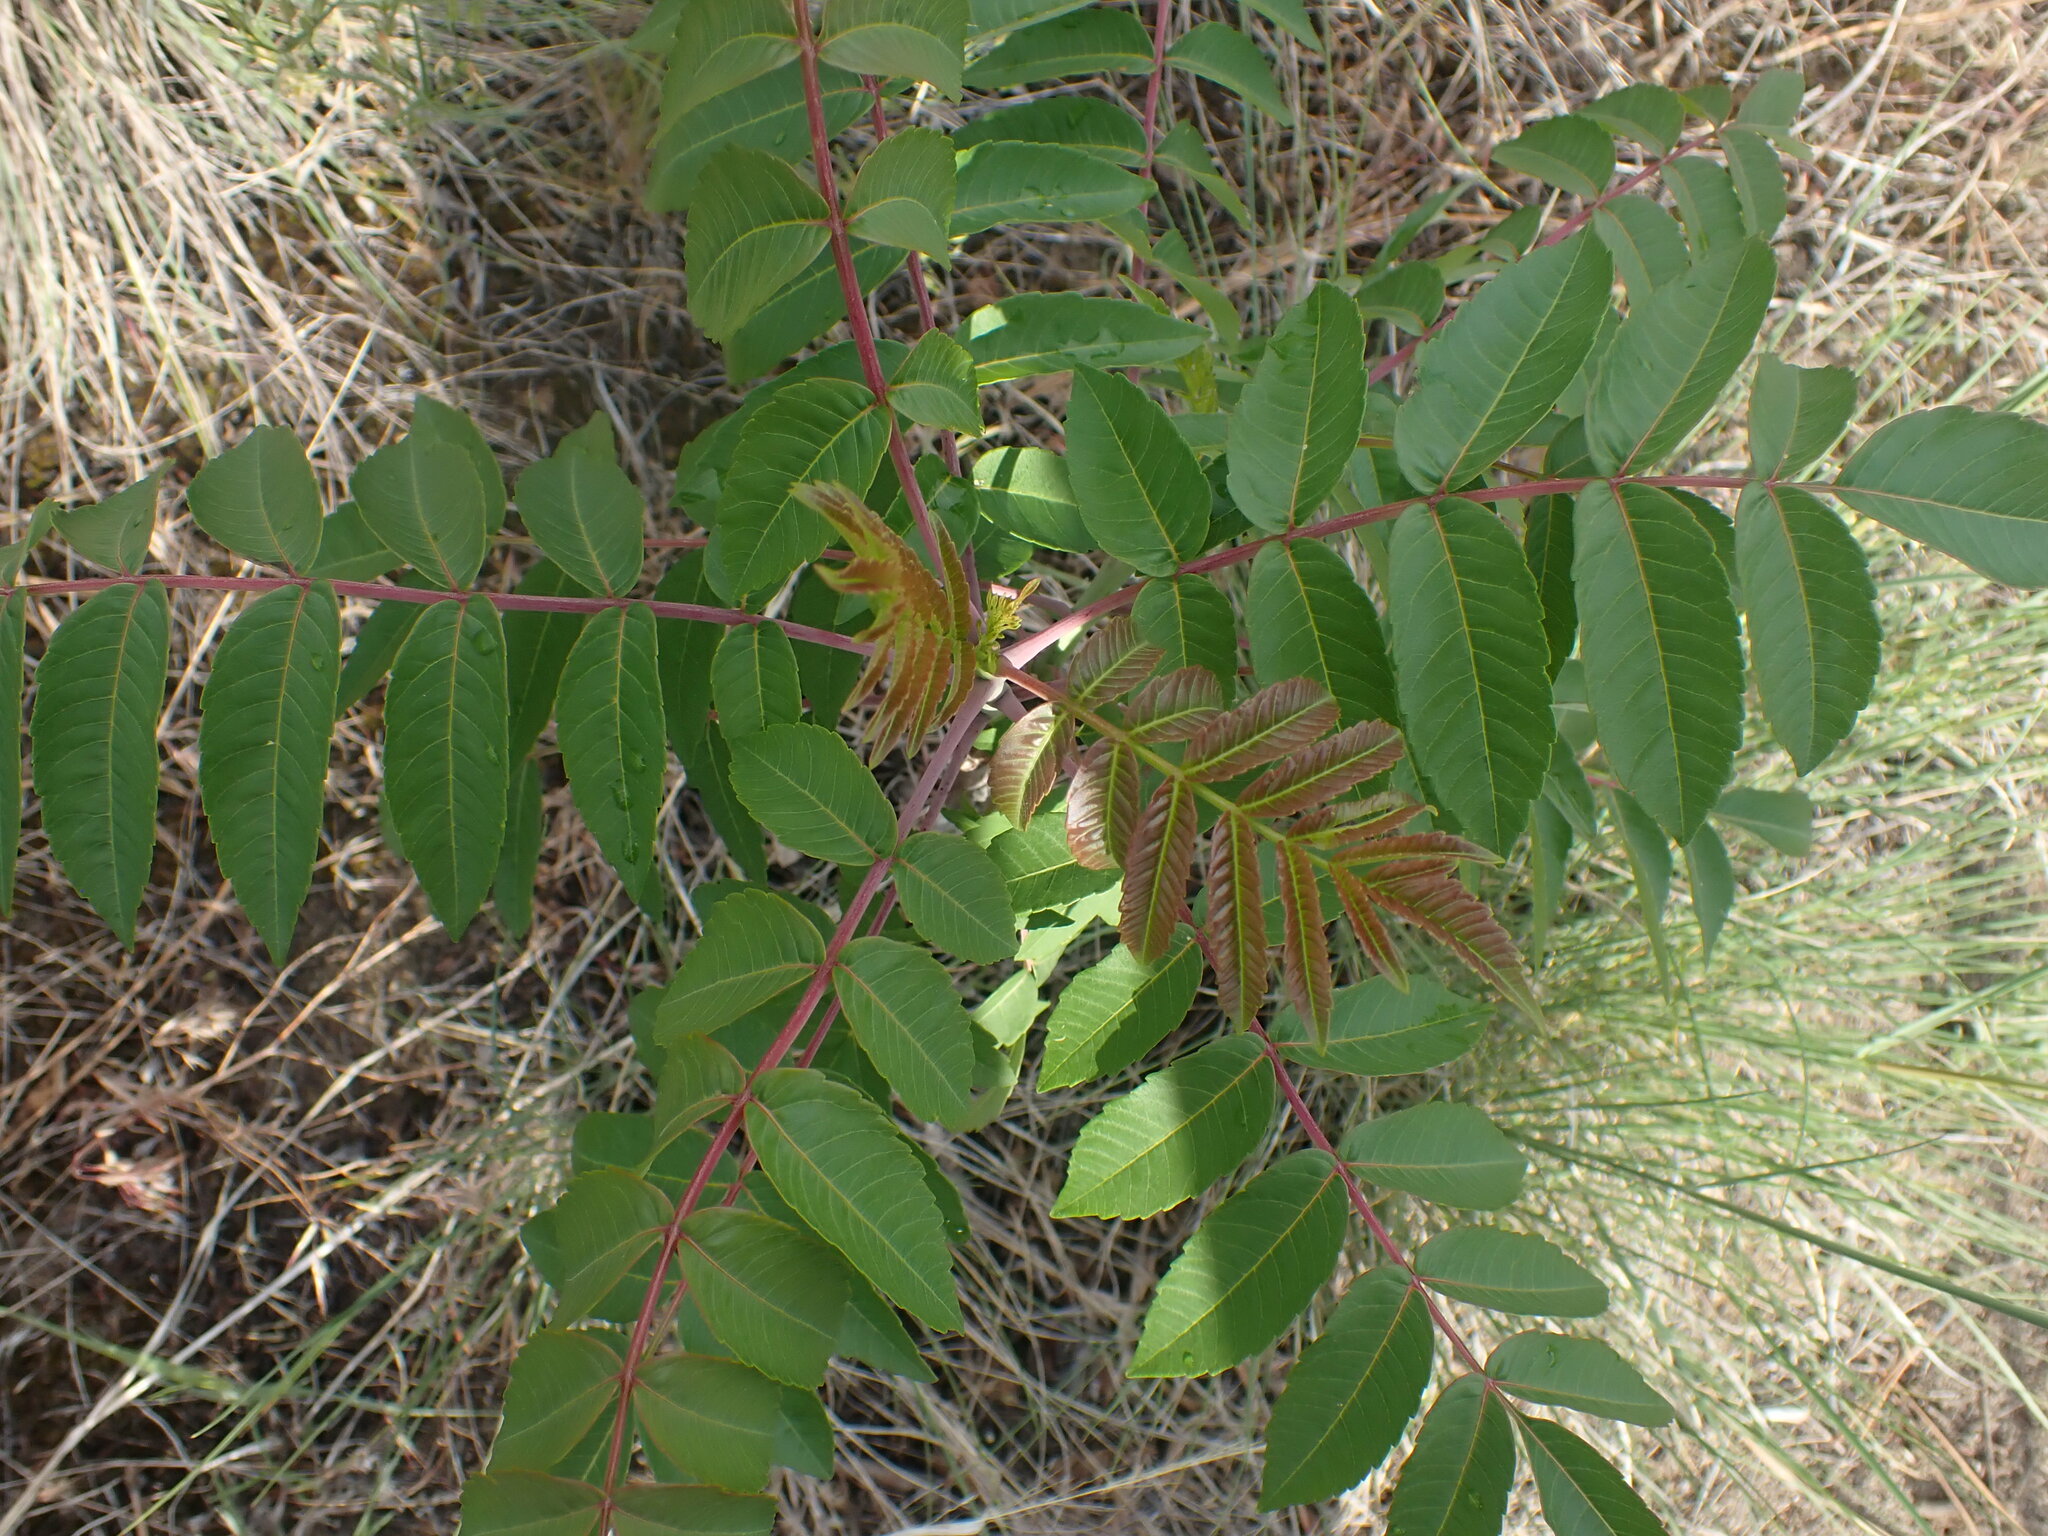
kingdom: Plantae
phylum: Tracheophyta
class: Magnoliopsida
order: Sapindales
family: Anacardiaceae
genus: Rhus
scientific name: Rhus glabra
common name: Scarlet sumac
